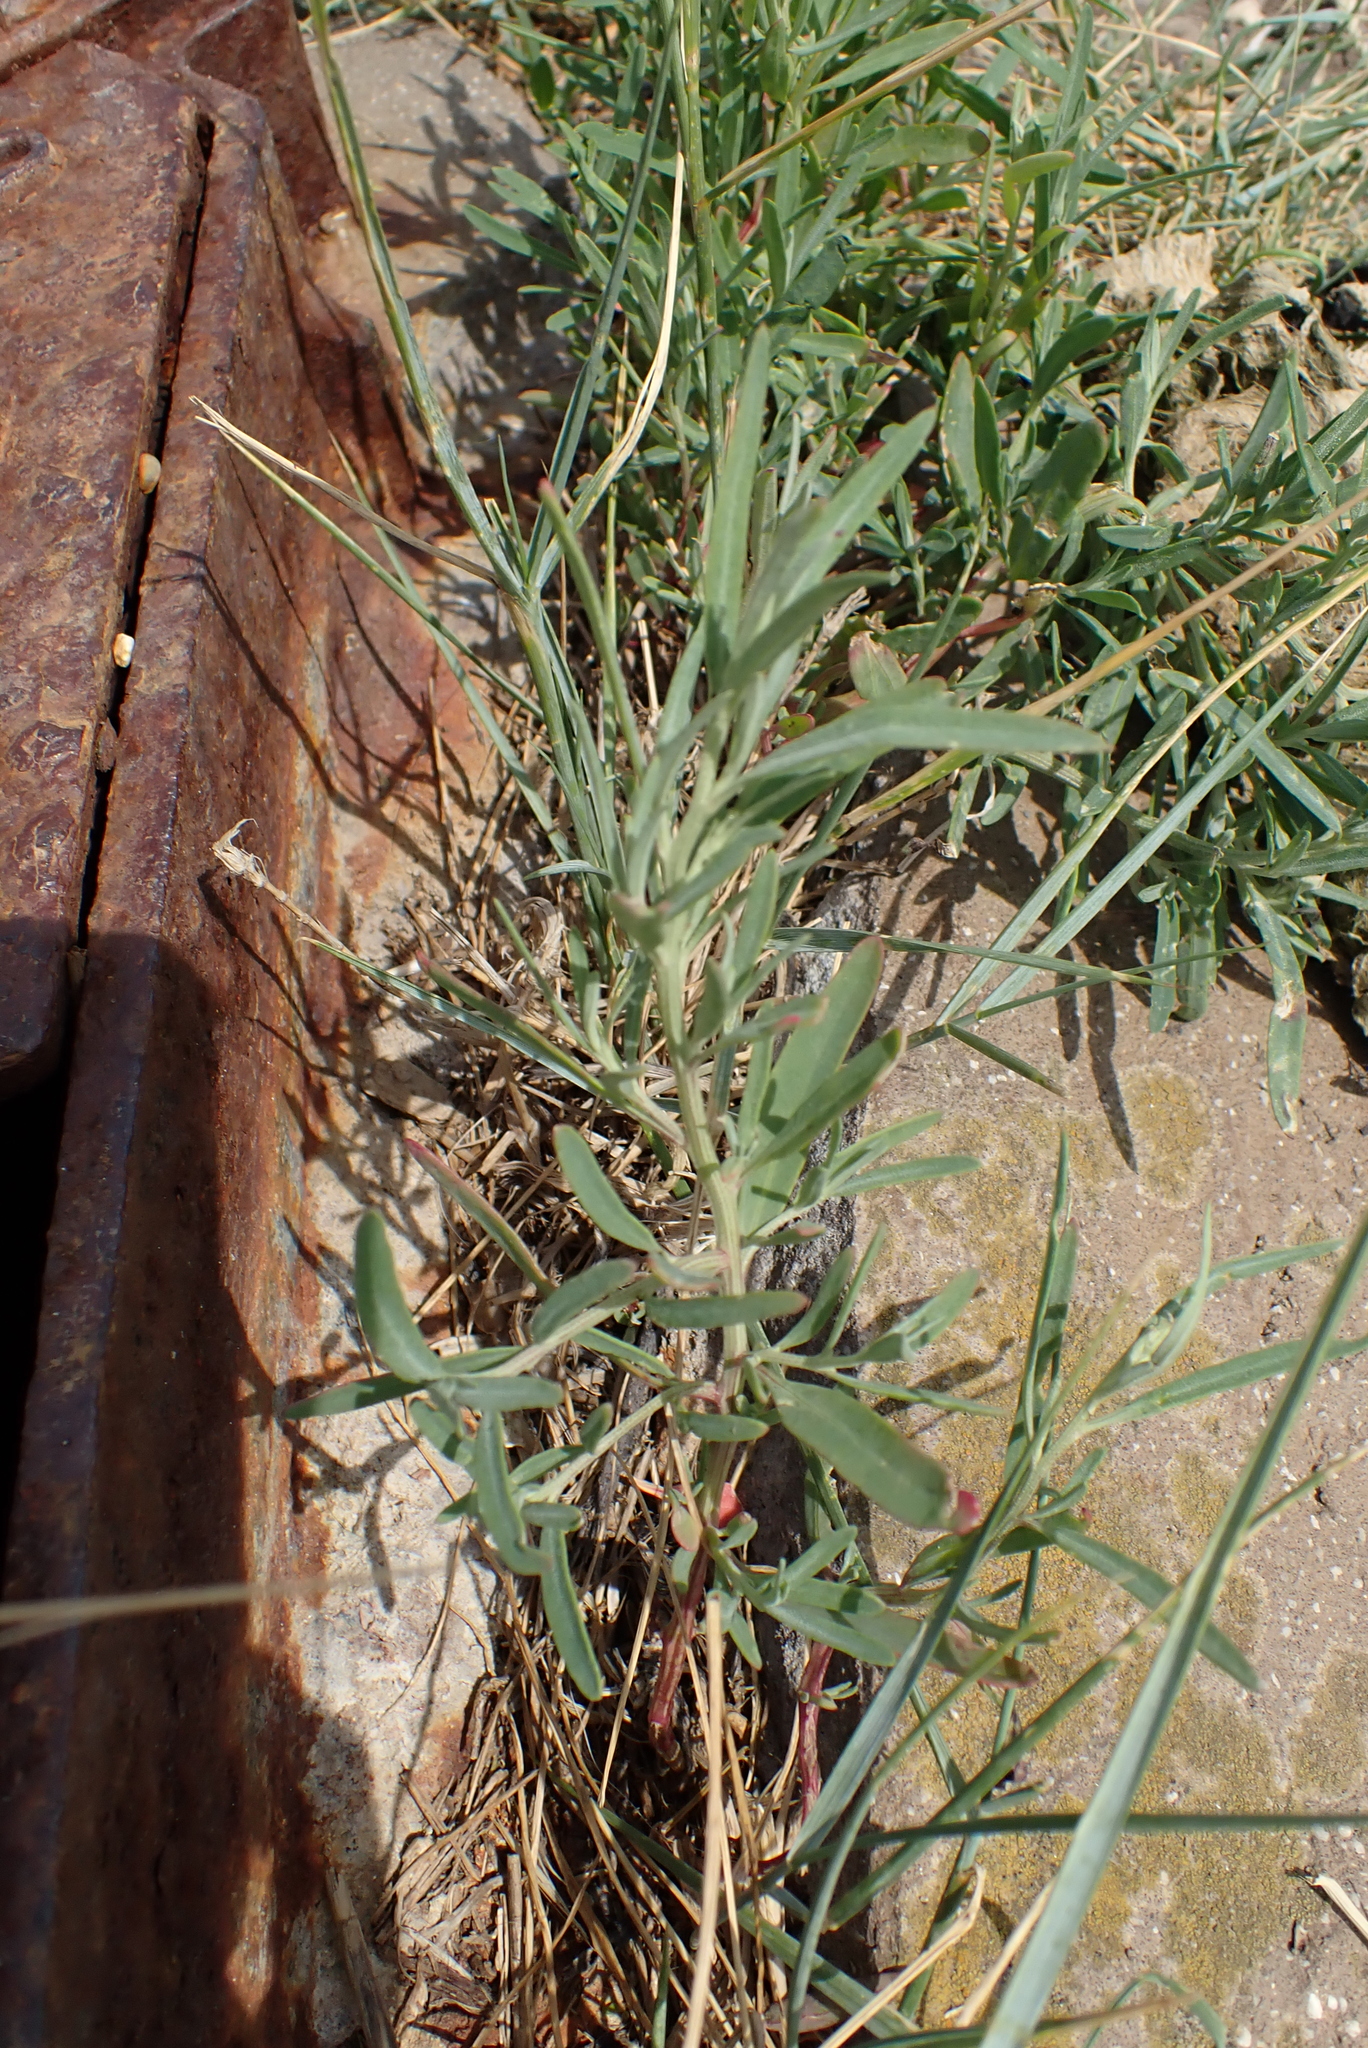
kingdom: Plantae
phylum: Tracheophyta
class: Magnoliopsida
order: Caryophyllales
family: Amaranthaceae
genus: Atriplex
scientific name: Atriplex littoralis
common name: Grass-leaved orache
